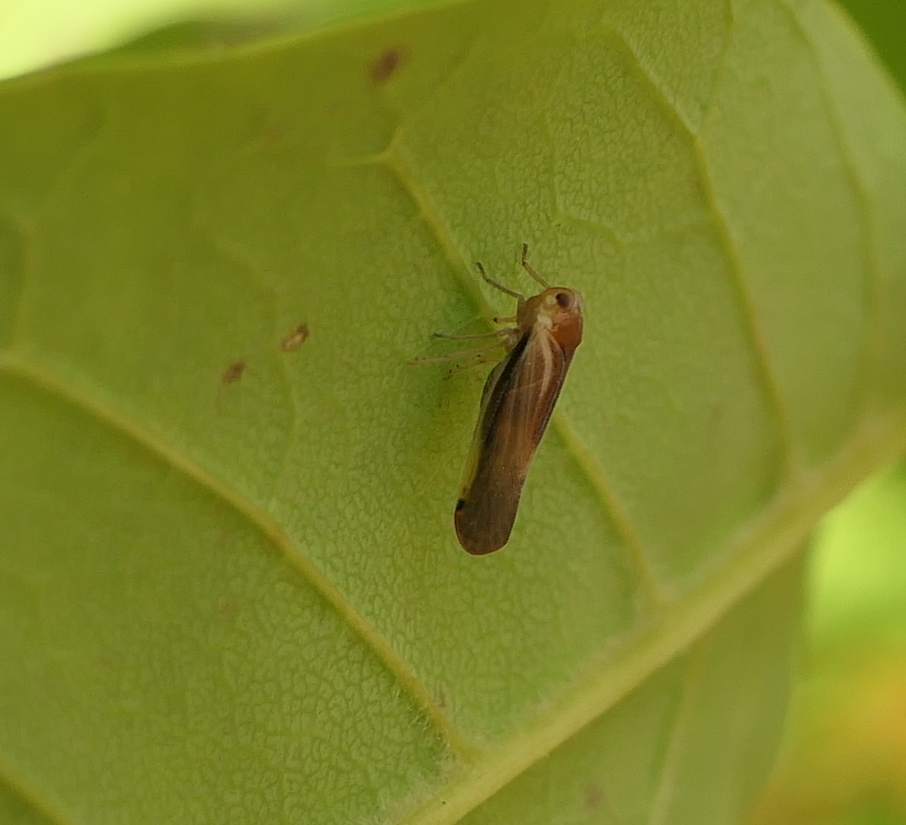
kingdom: Animalia
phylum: Arthropoda
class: Insecta
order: Hemiptera
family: Derbidae
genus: Omolicna
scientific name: Omolicna uhleri
